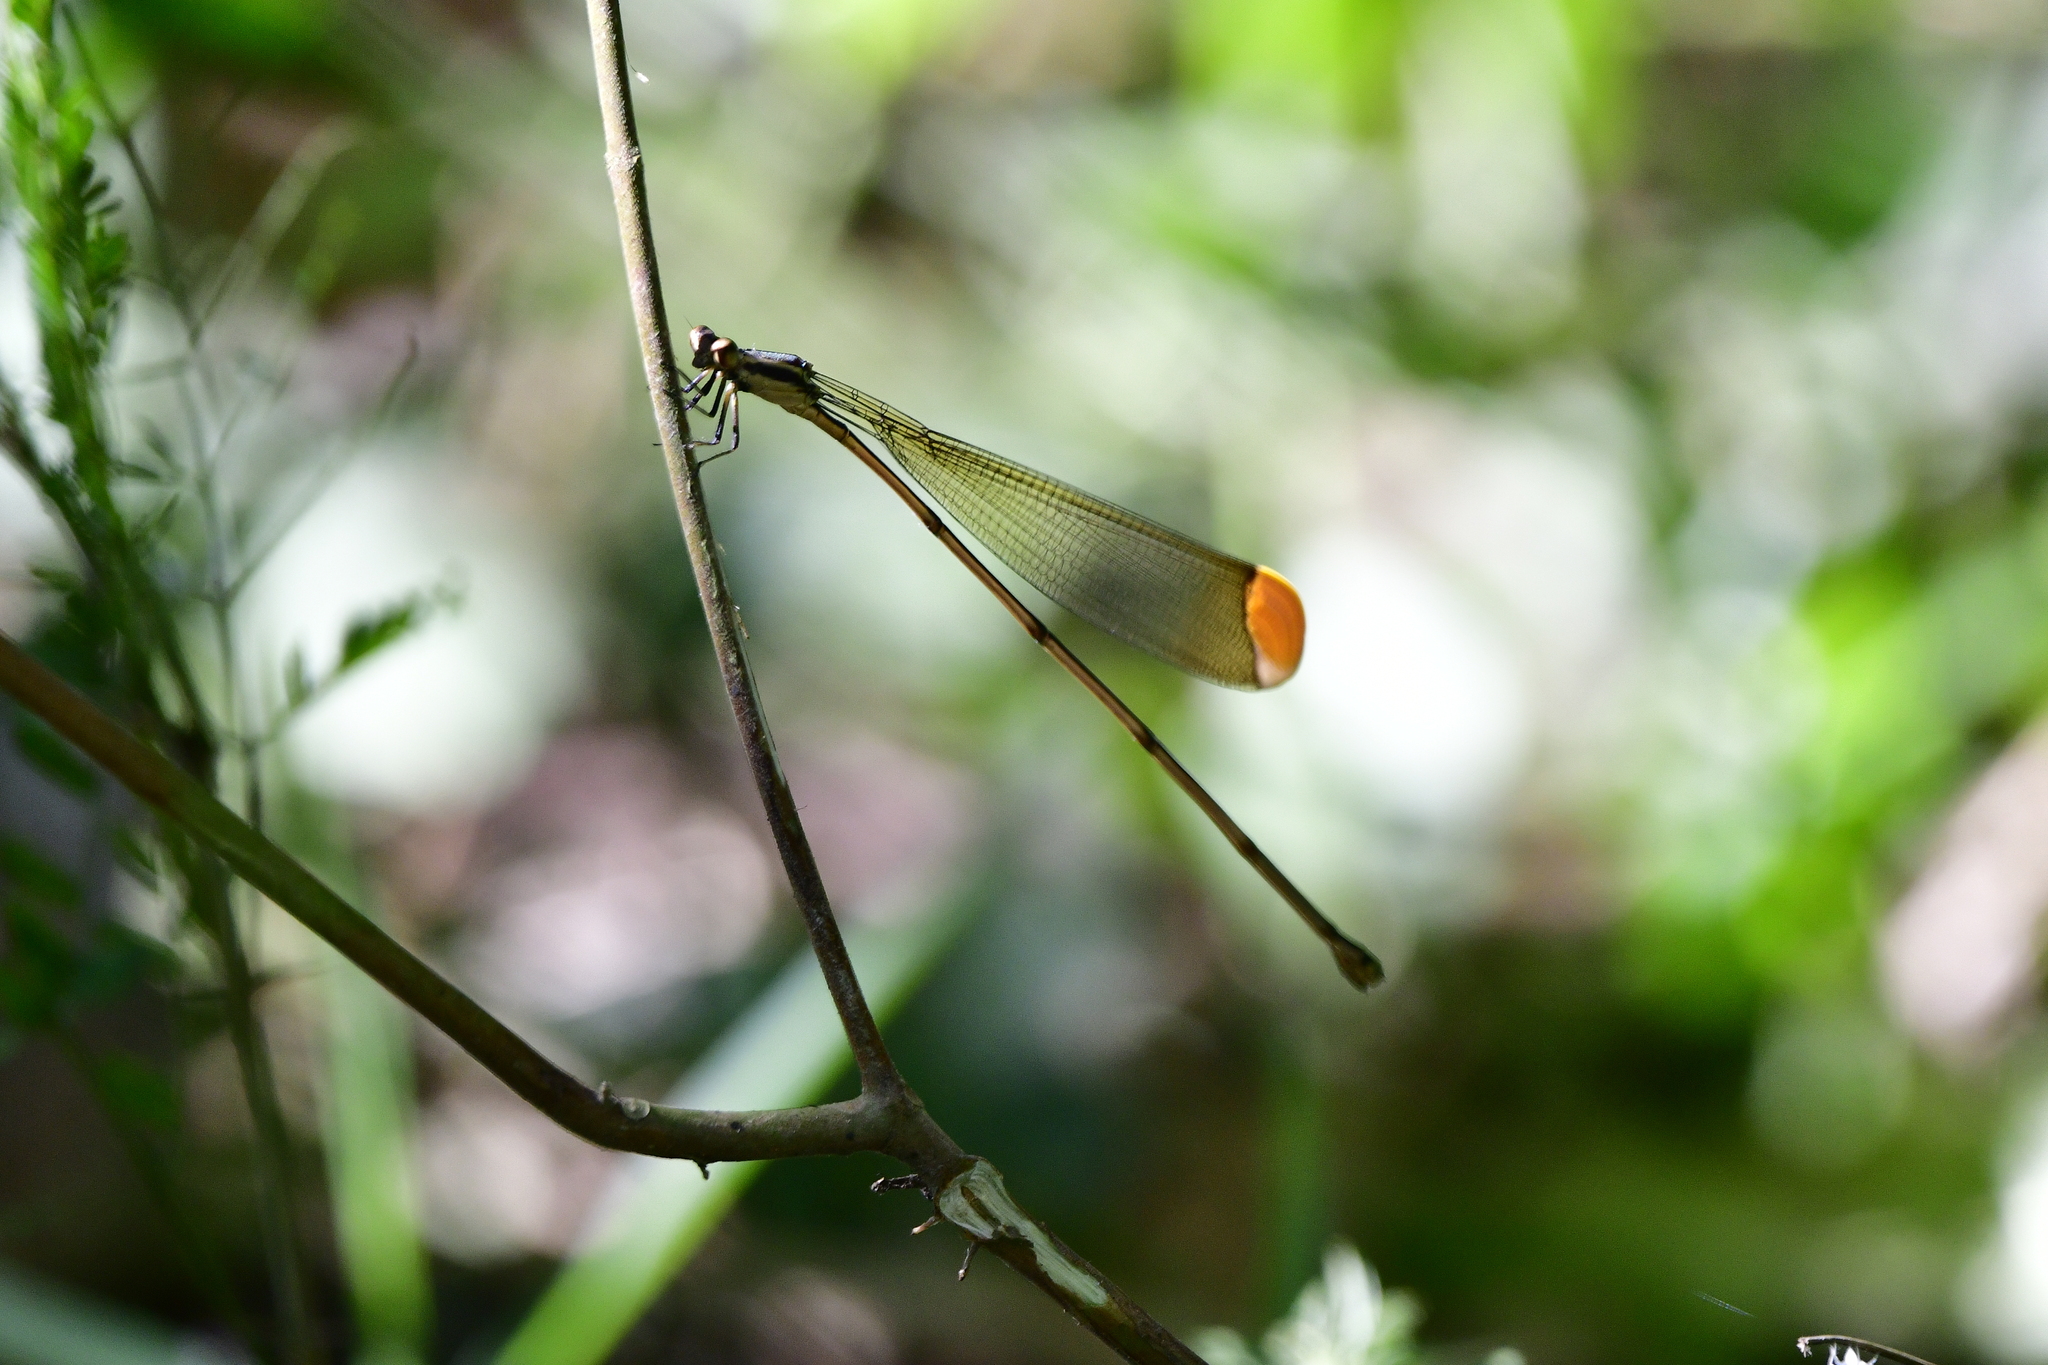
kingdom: Animalia
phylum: Arthropoda
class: Insecta
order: Odonata
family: Coenagrionidae
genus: Mecistogaster
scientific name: Mecistogaster ornata
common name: Ornate helicopter
